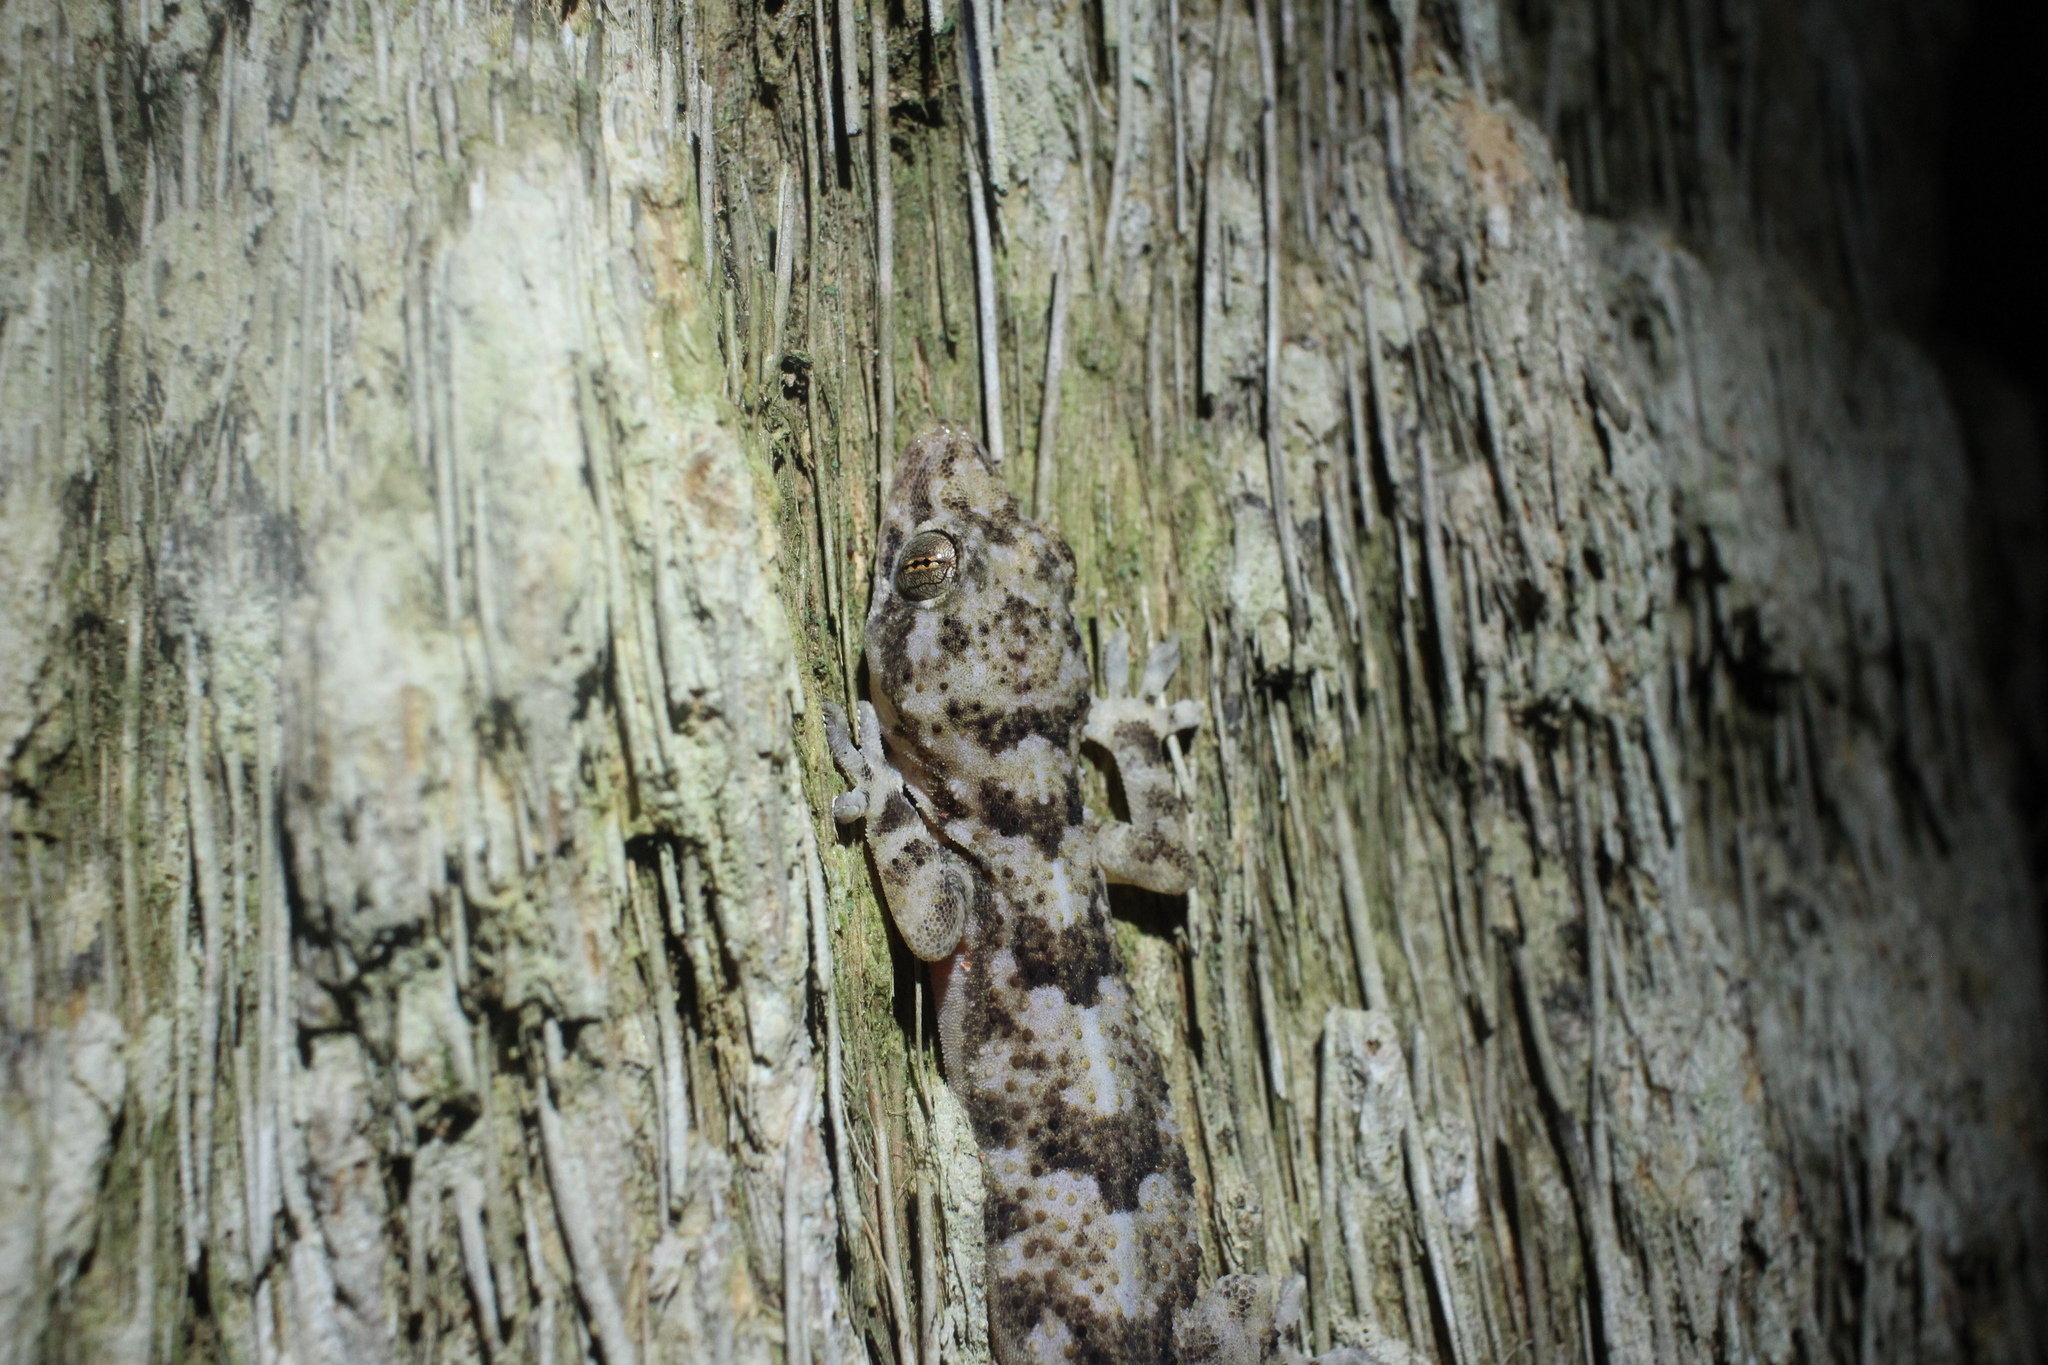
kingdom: Animalia
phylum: Chordata
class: Squamata
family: Gekkonidae
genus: Hemidactylus
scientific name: Hemidactylus mabouia
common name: House gecko
